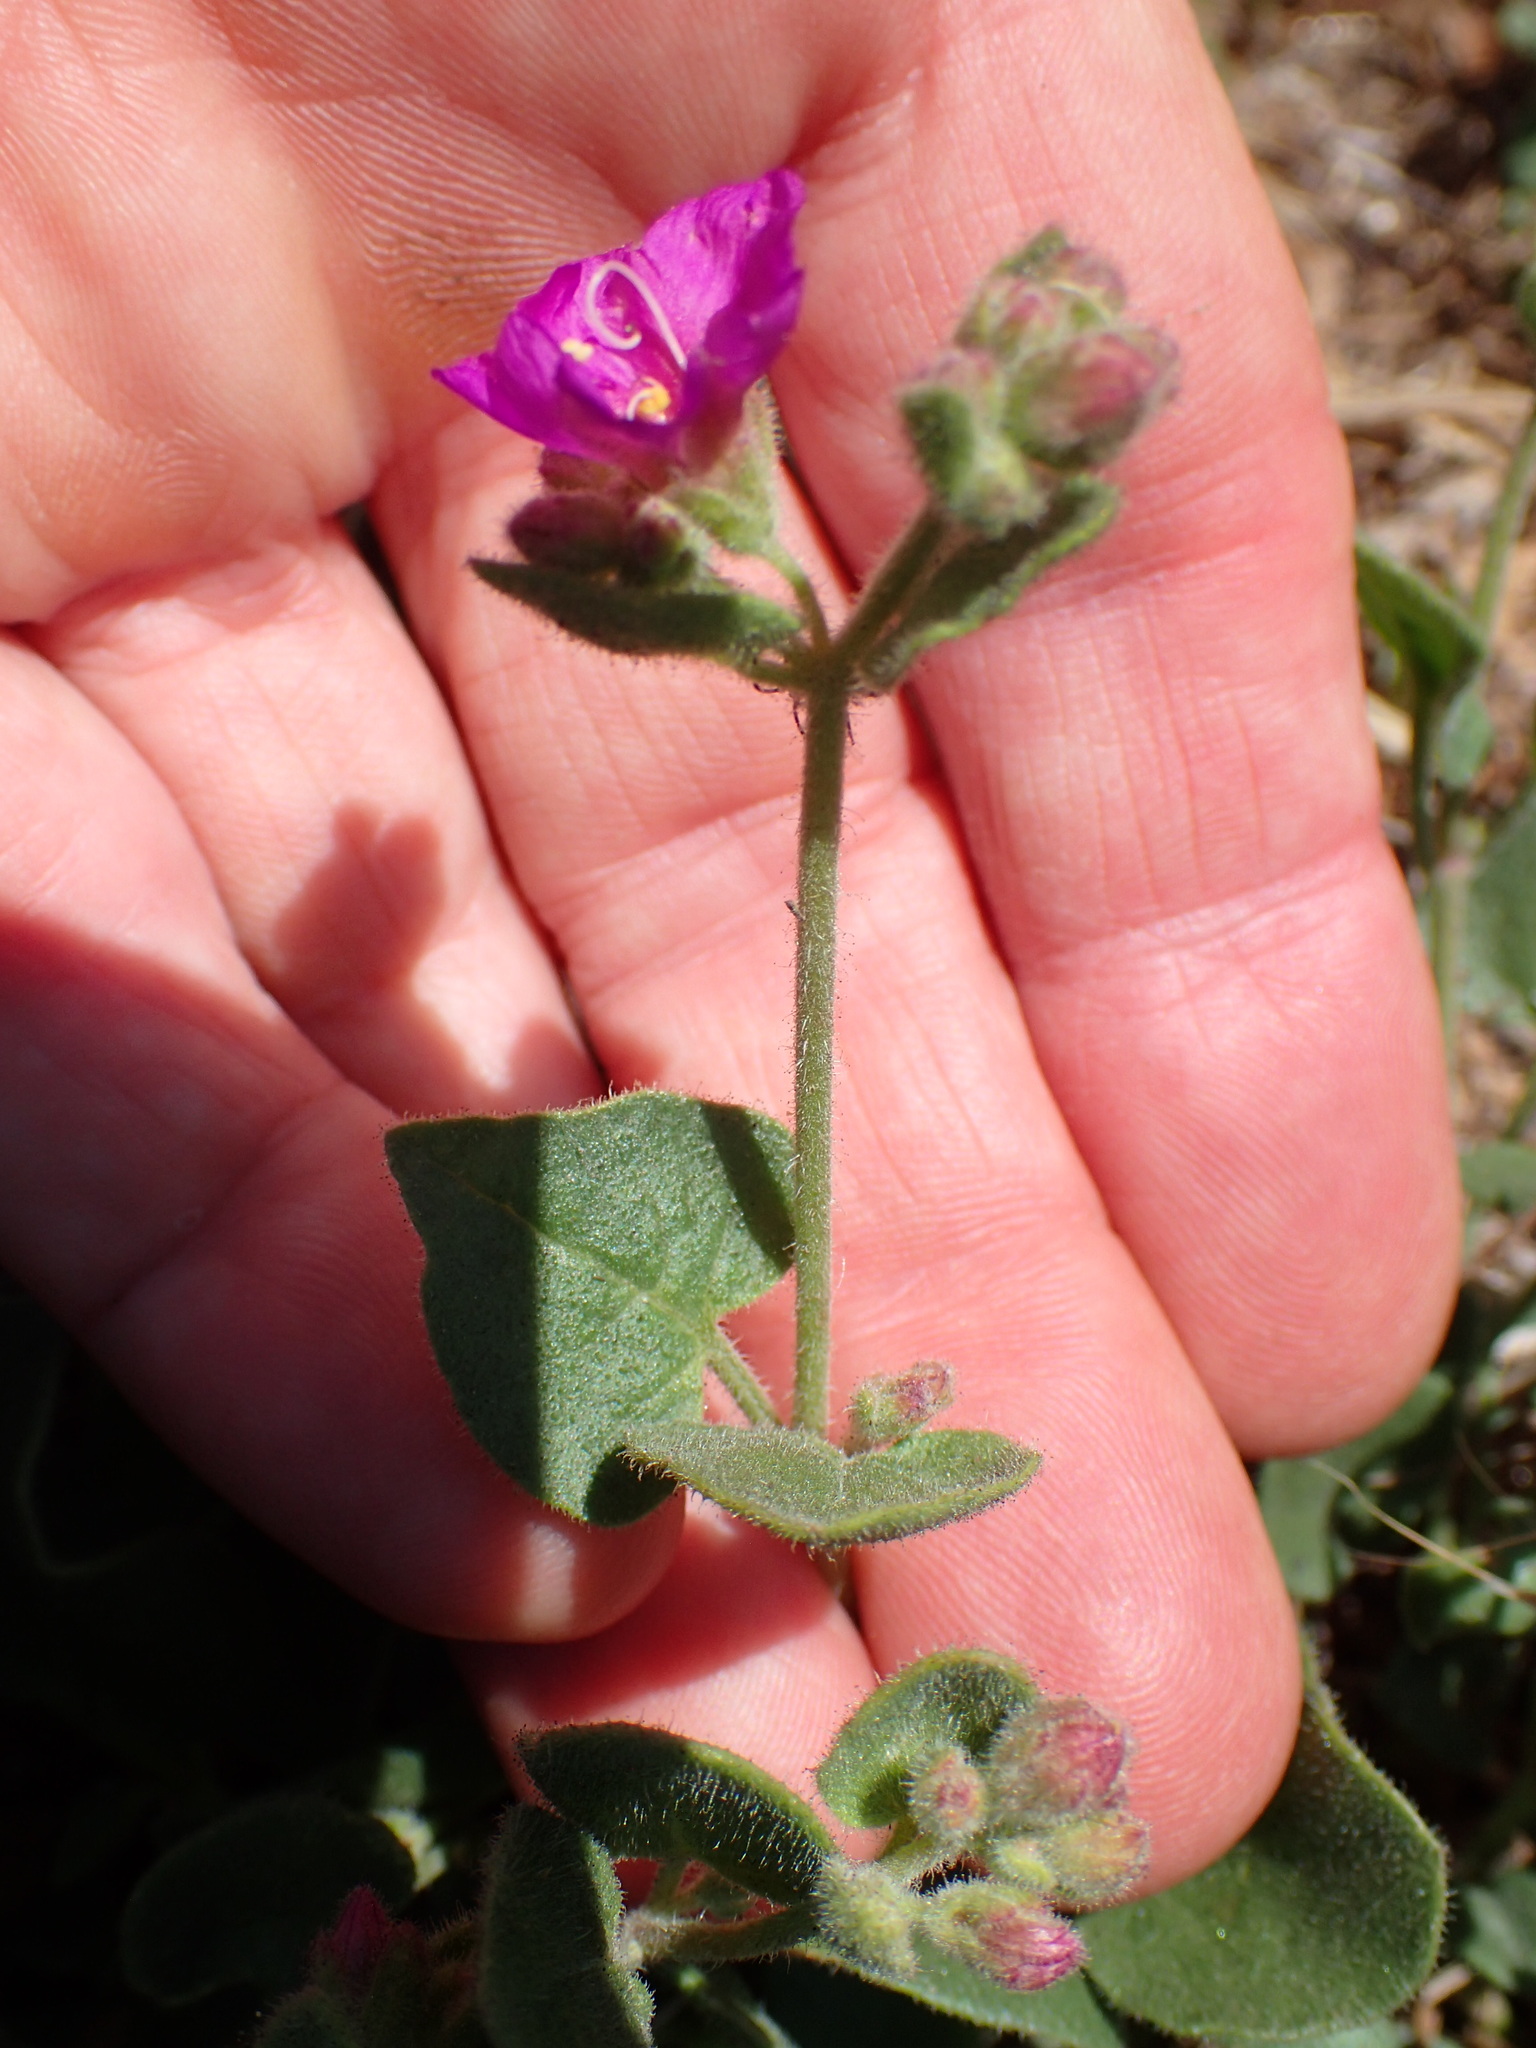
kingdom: Plantae
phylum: Tracheophyta
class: Magnoliopsida
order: Caryophyllales
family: Nyctaginaceae
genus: Mirabilis
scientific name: Mirabilis laevis
